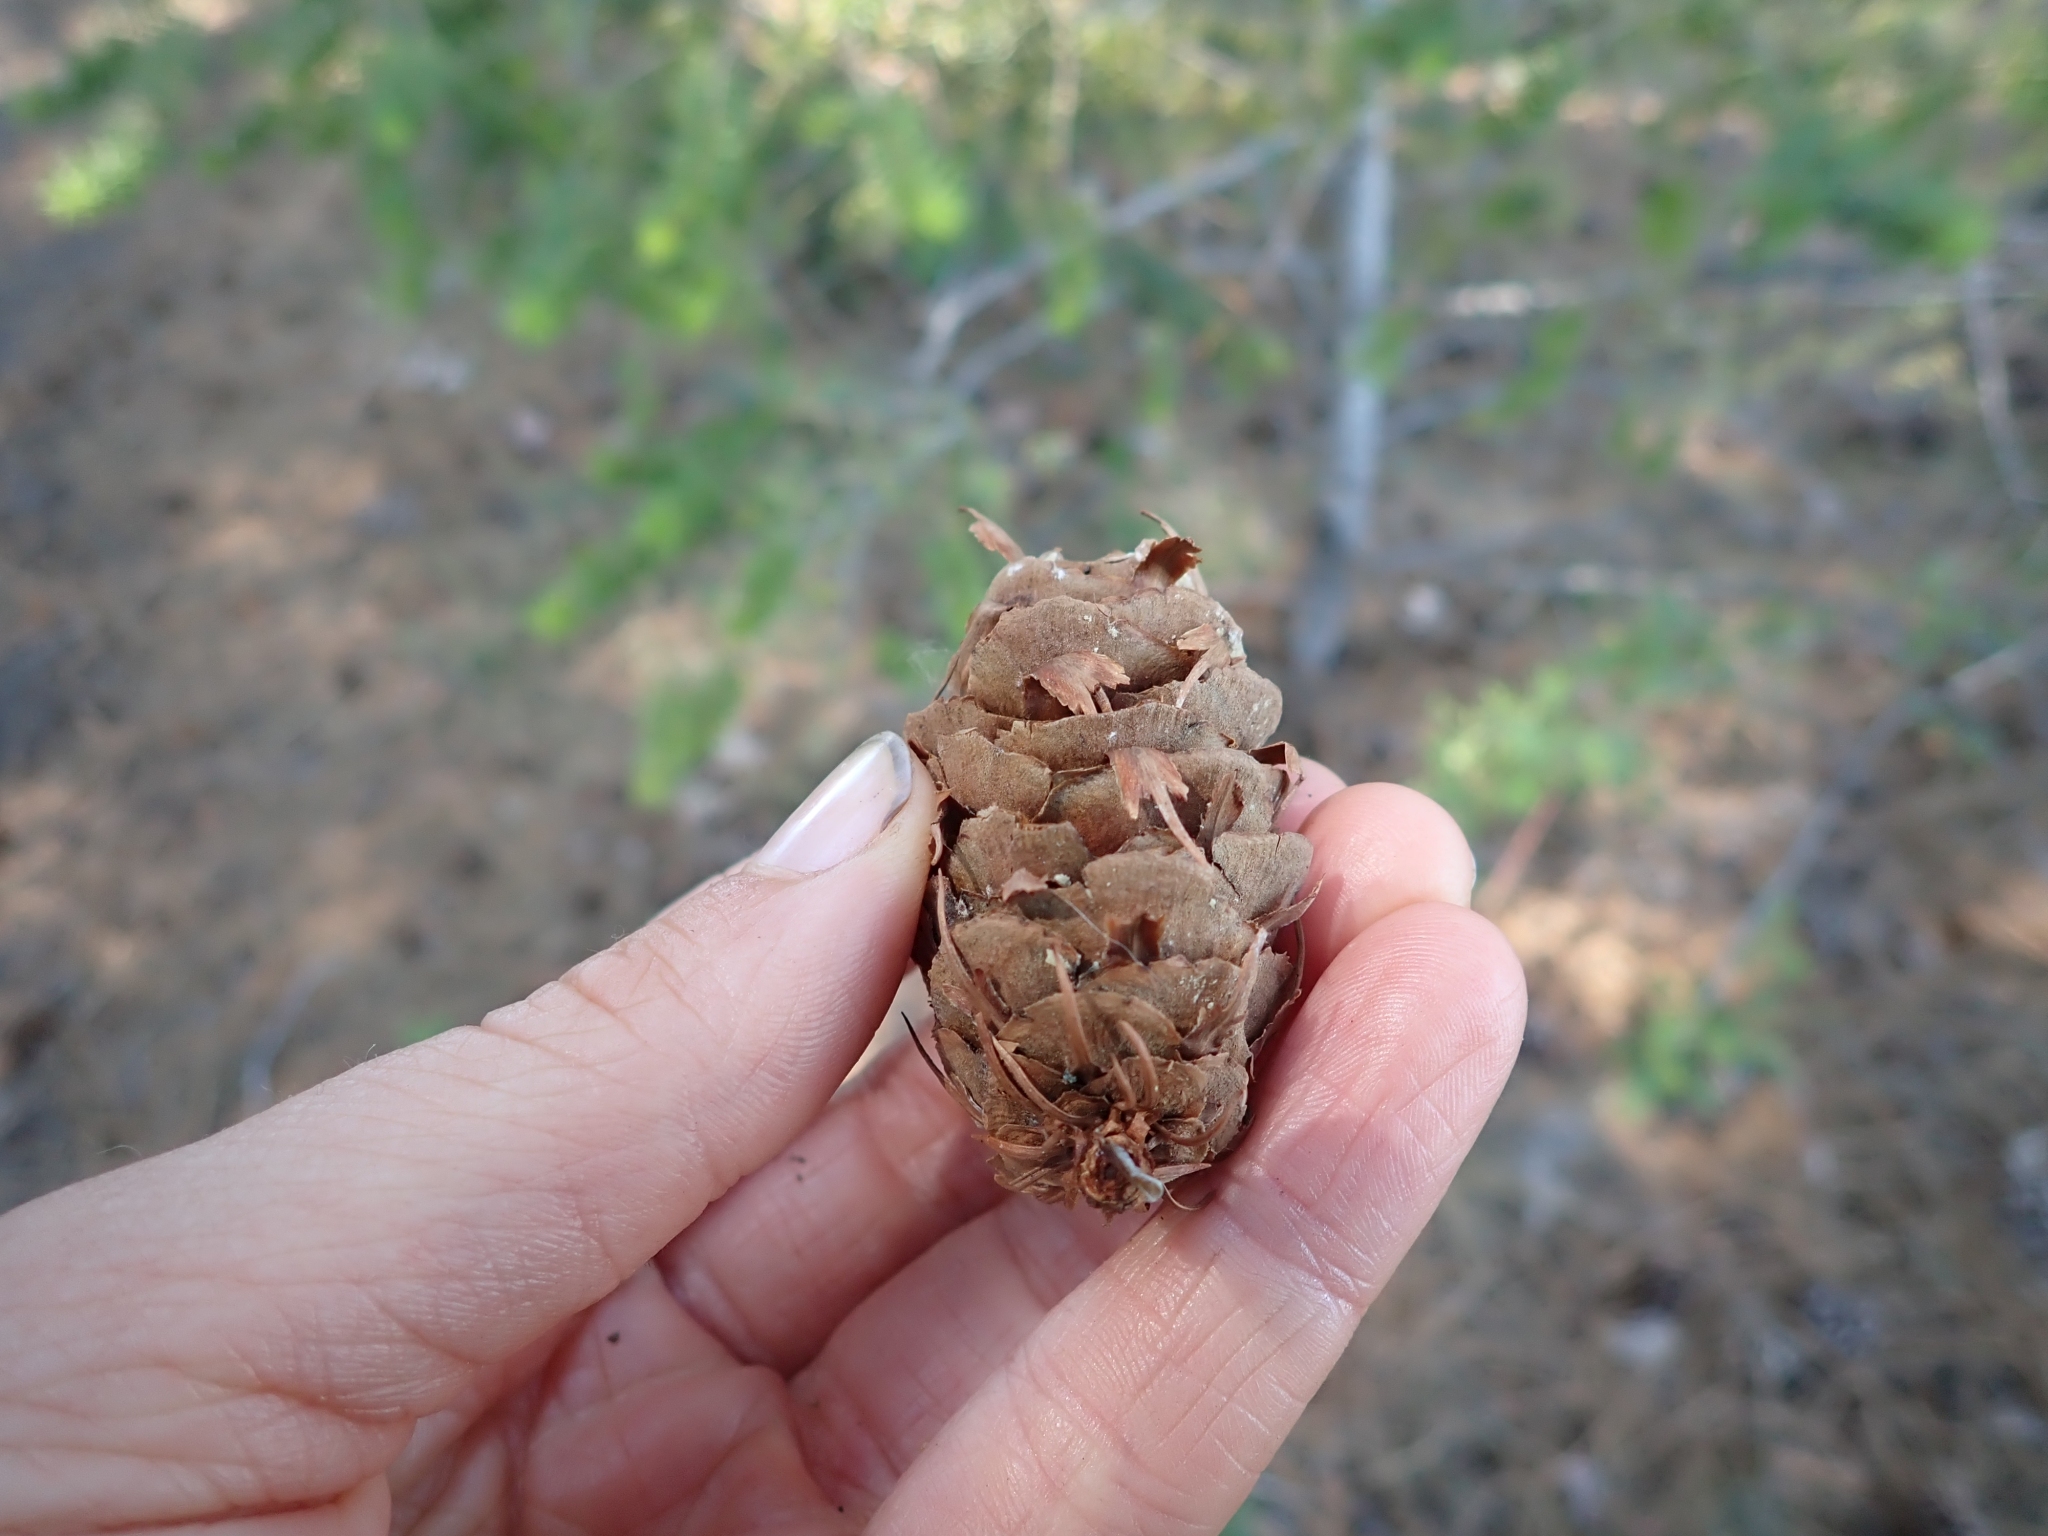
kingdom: Plantae
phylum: Tracheophyta
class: Pinopsida
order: Pinales
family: Pinaceae
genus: Pseudotsuga
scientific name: Pseudotsuga menziesii
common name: Douglas fir
